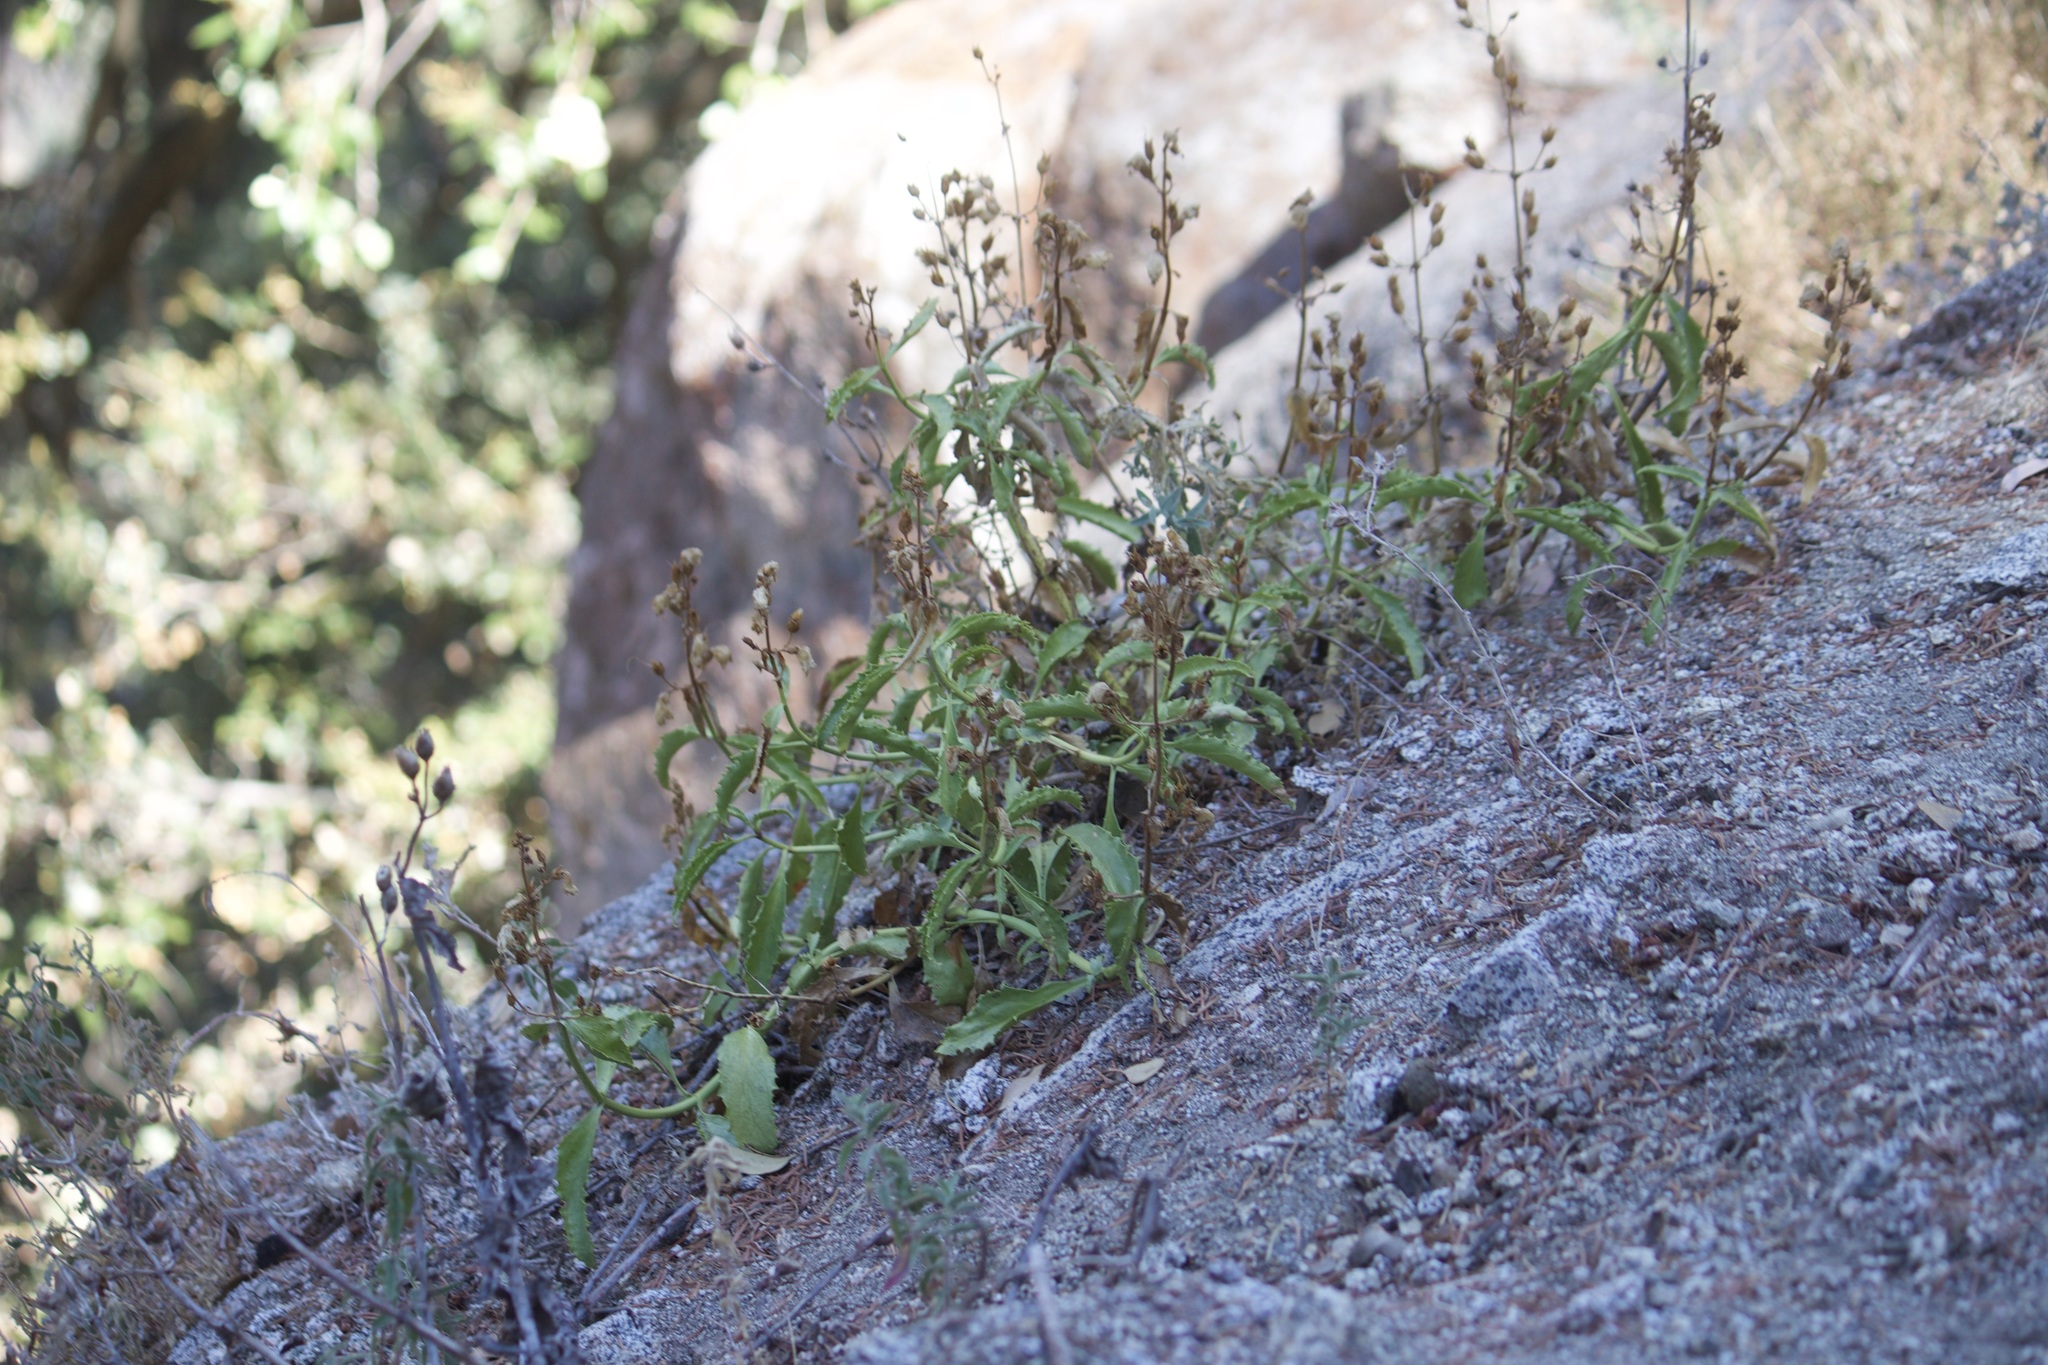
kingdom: Plantae
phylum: Tracheophyta
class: Magnoliopsida
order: Lamiales
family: Plantaginaceae
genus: Penstemon
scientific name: Penstemon grinnellii
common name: Grinnell's beardtongue
